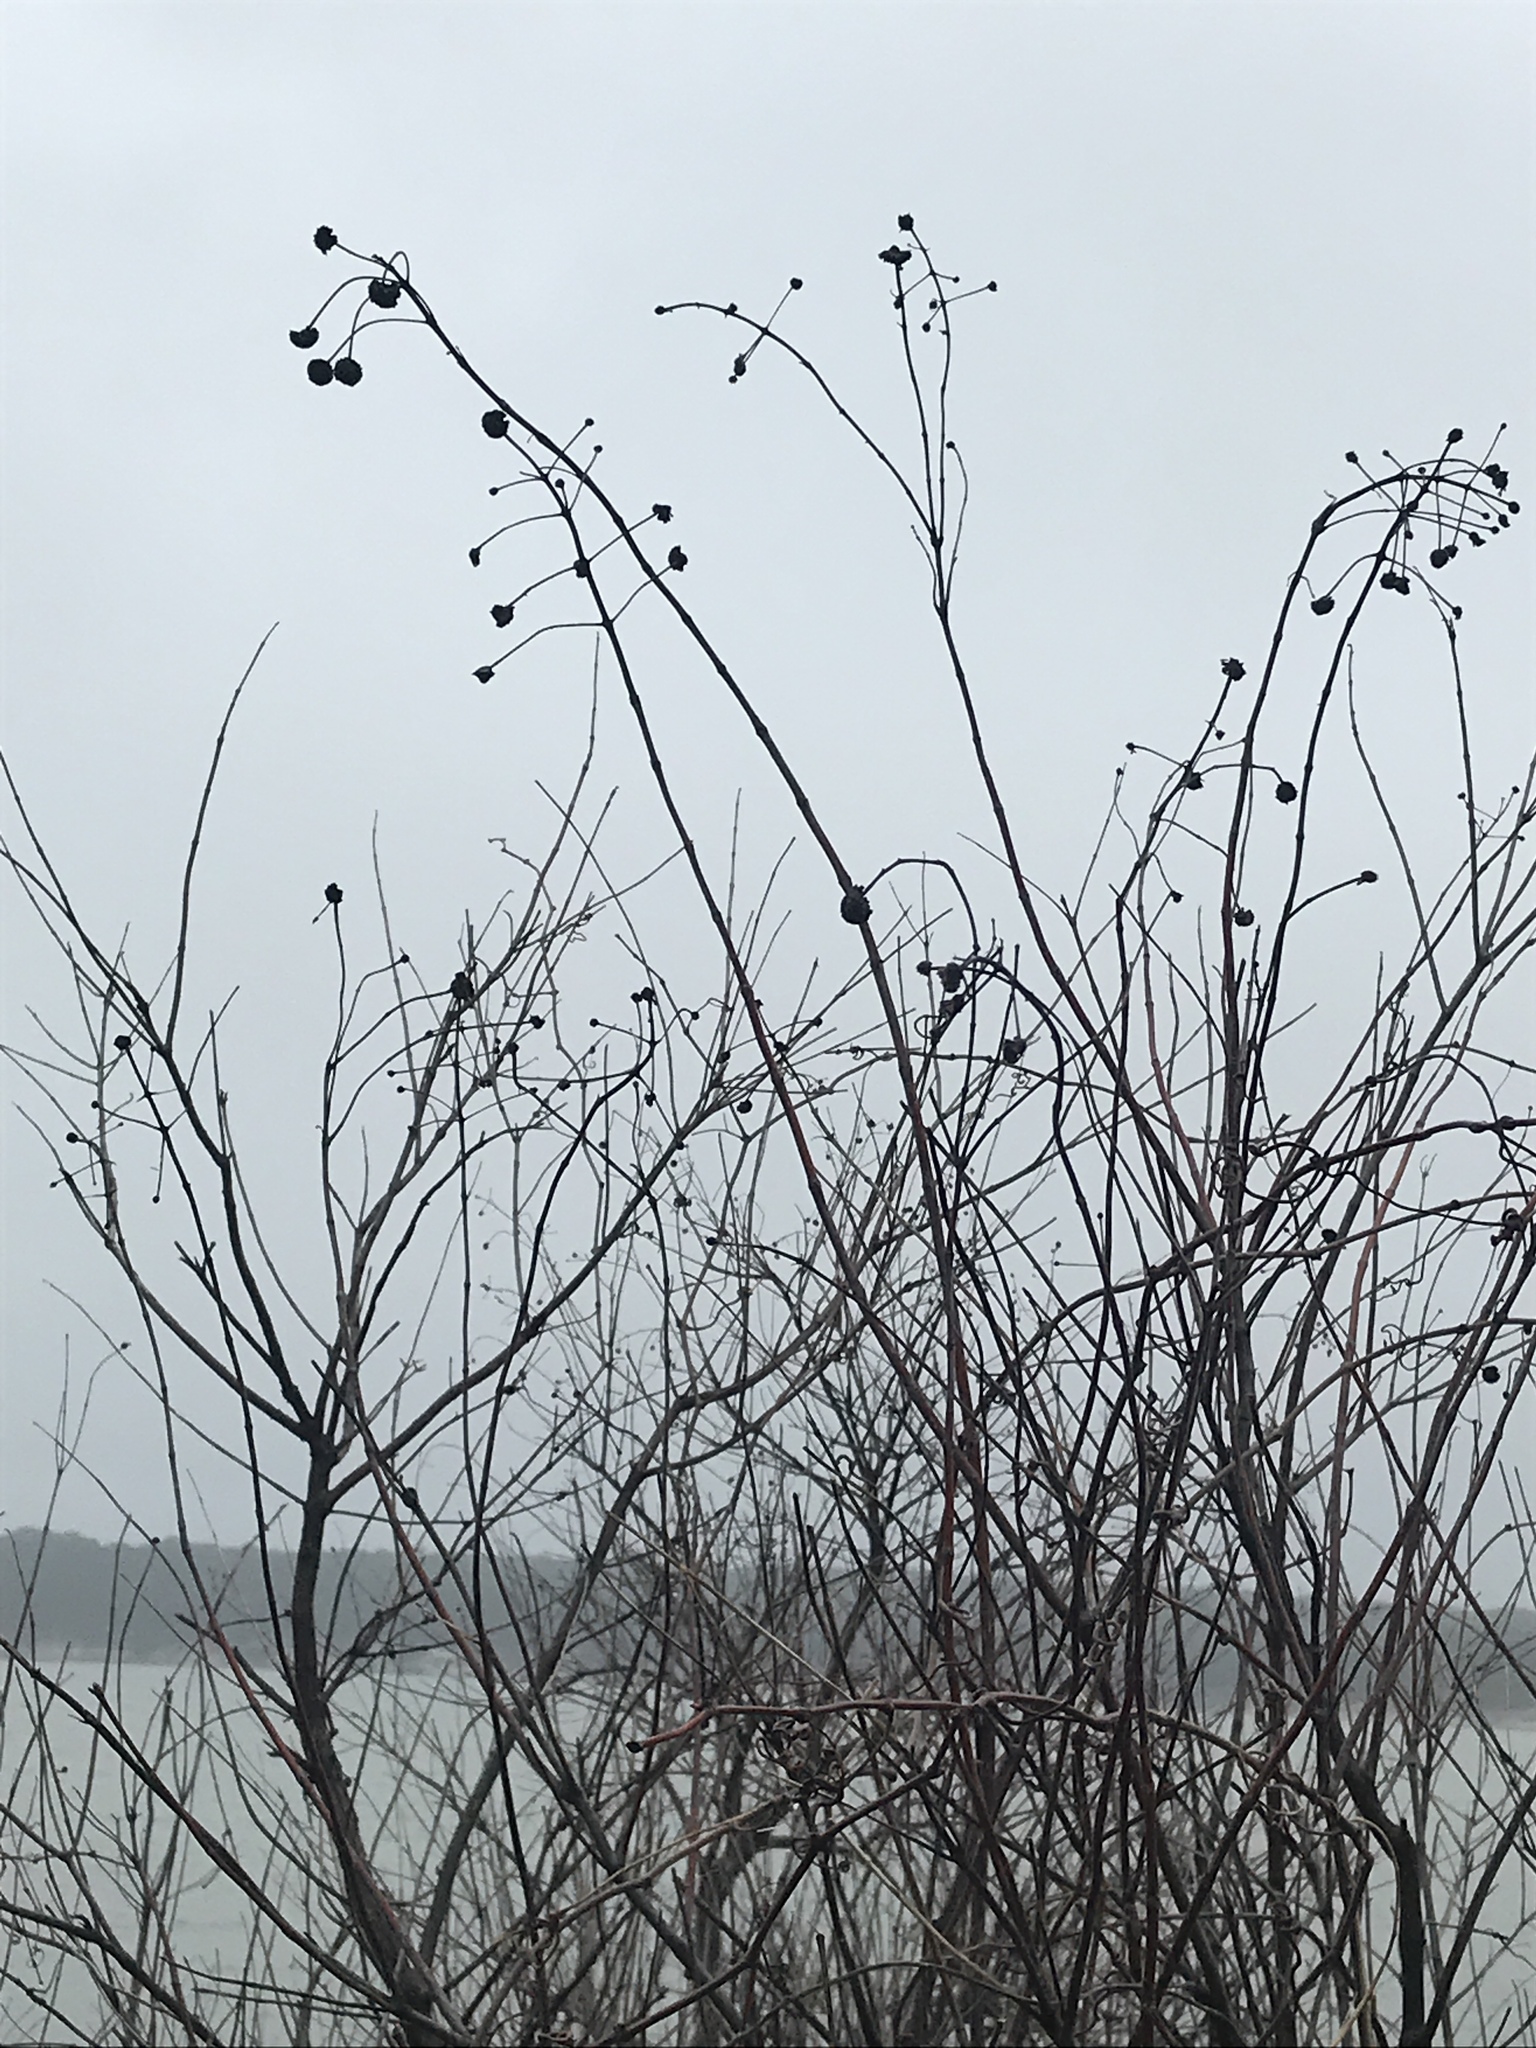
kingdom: Plantae
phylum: Tracheophyta
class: Magnoliopsida
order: Gentianales
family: Rubiaceae
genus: Cephalanthus
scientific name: Cephalanthus occidentalis
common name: Button-willow
